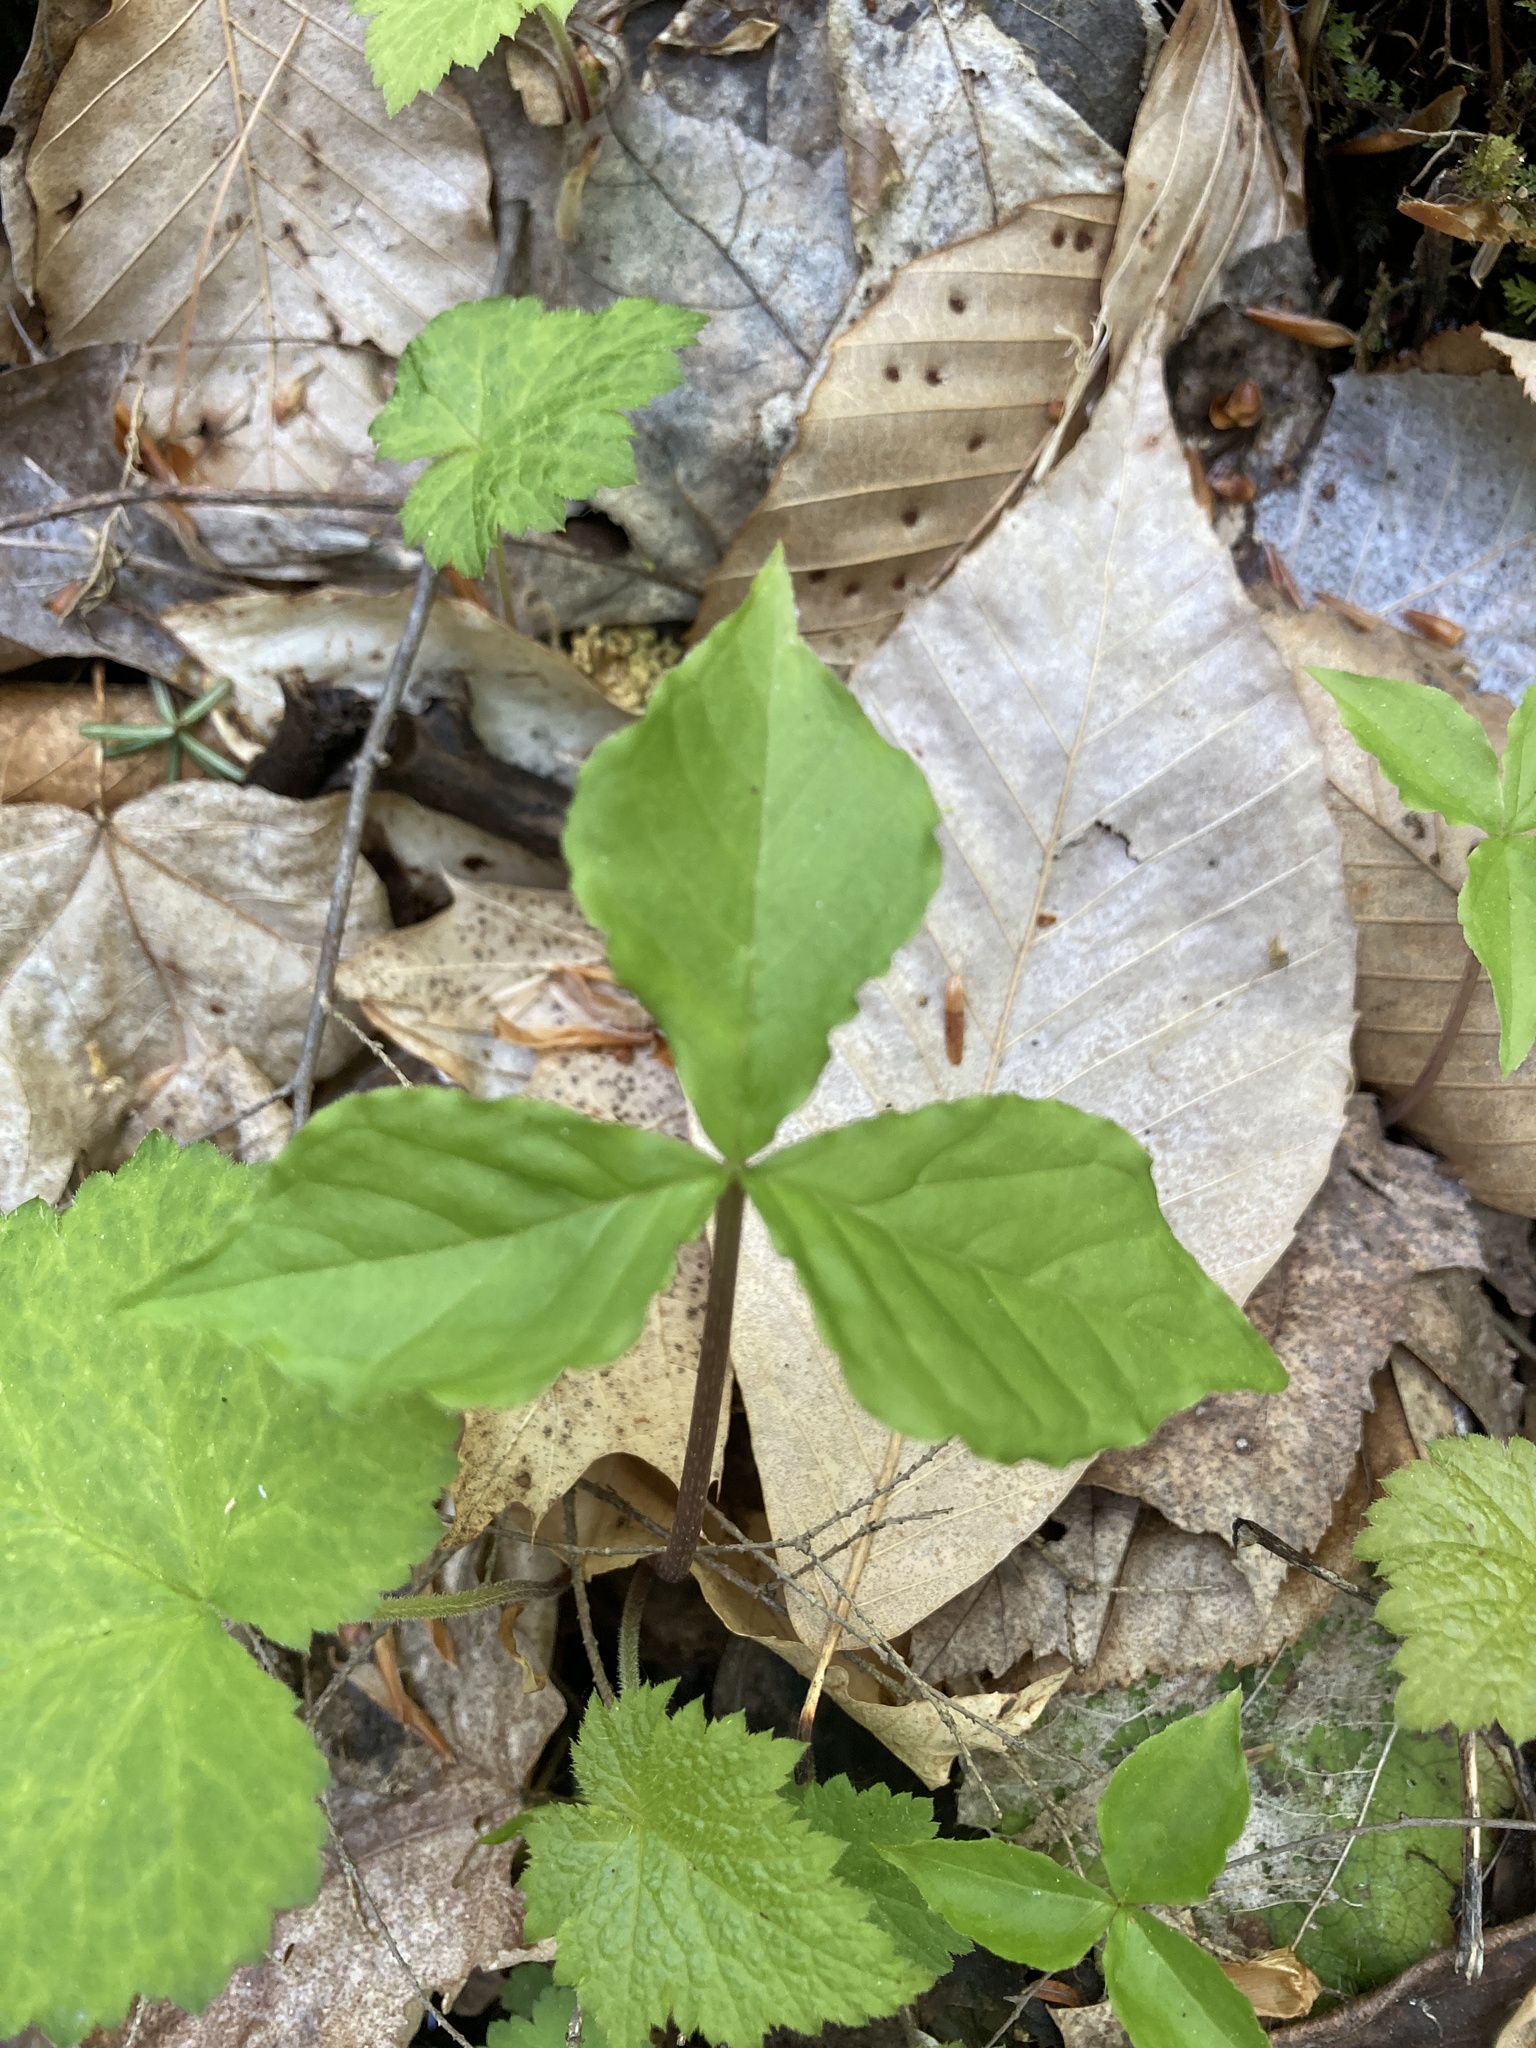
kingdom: Plantae
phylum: Tracheophyta
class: Liliopsida
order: Alismatales
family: Araceae
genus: Arisaema
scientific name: Arisaema triphyllum
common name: Jack-in-the-pulpit
